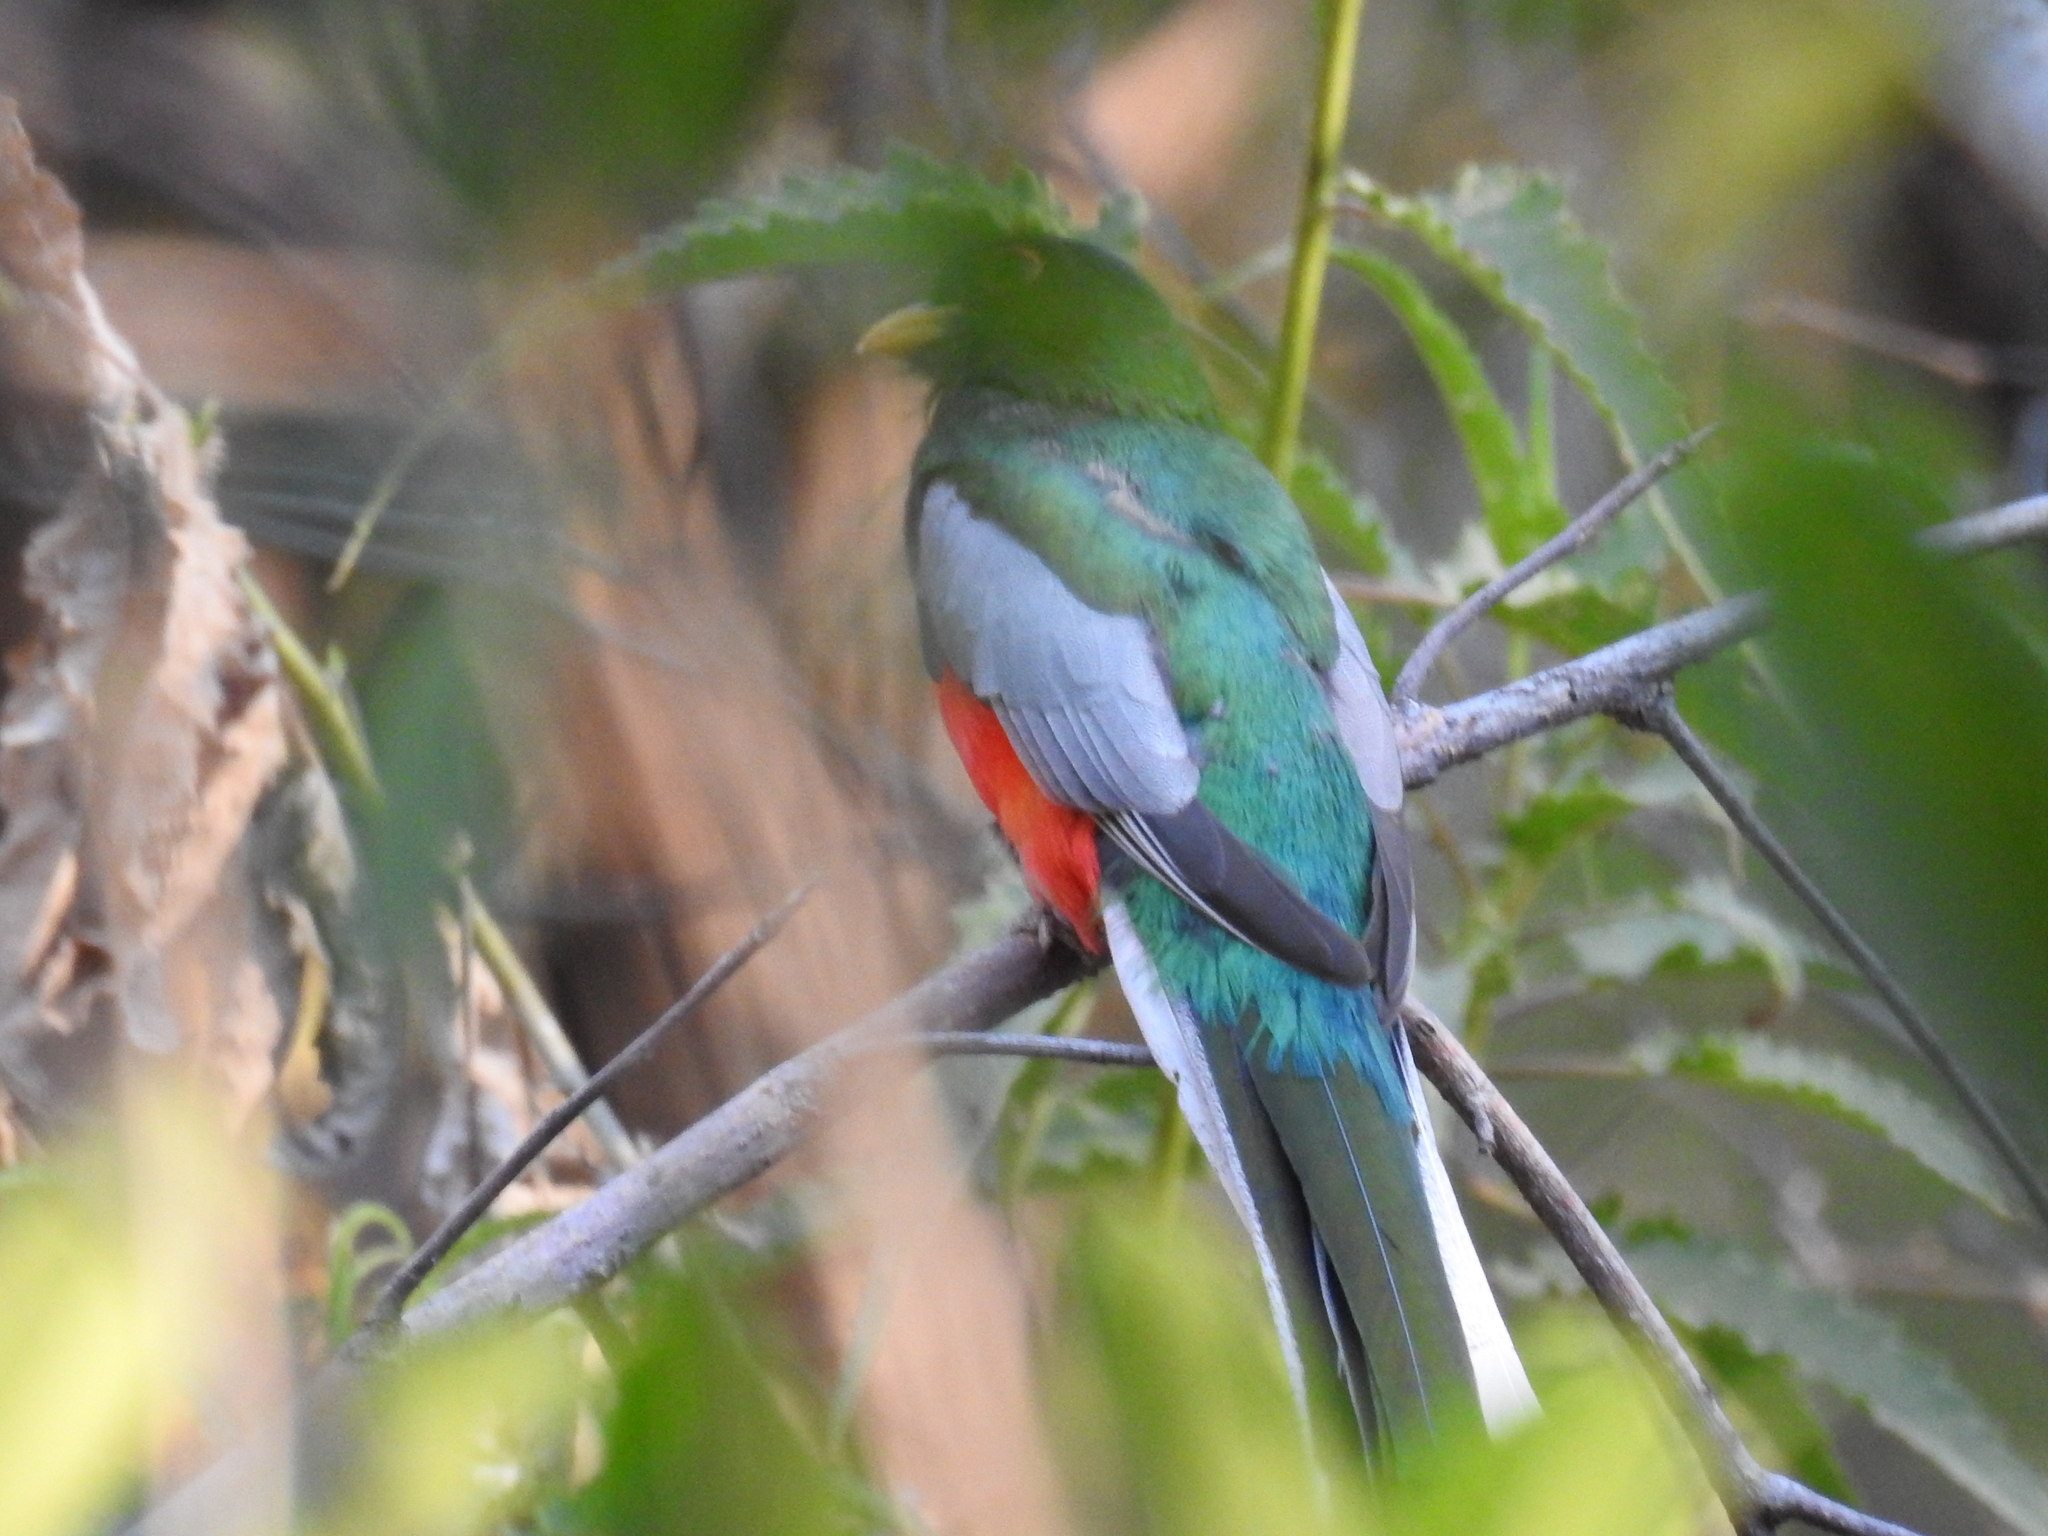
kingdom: Animalia
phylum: Chordata
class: Aves
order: Trogoniformes
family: Trogonidae
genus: Trogon
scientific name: Trogon elegans
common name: Elegant trogon
